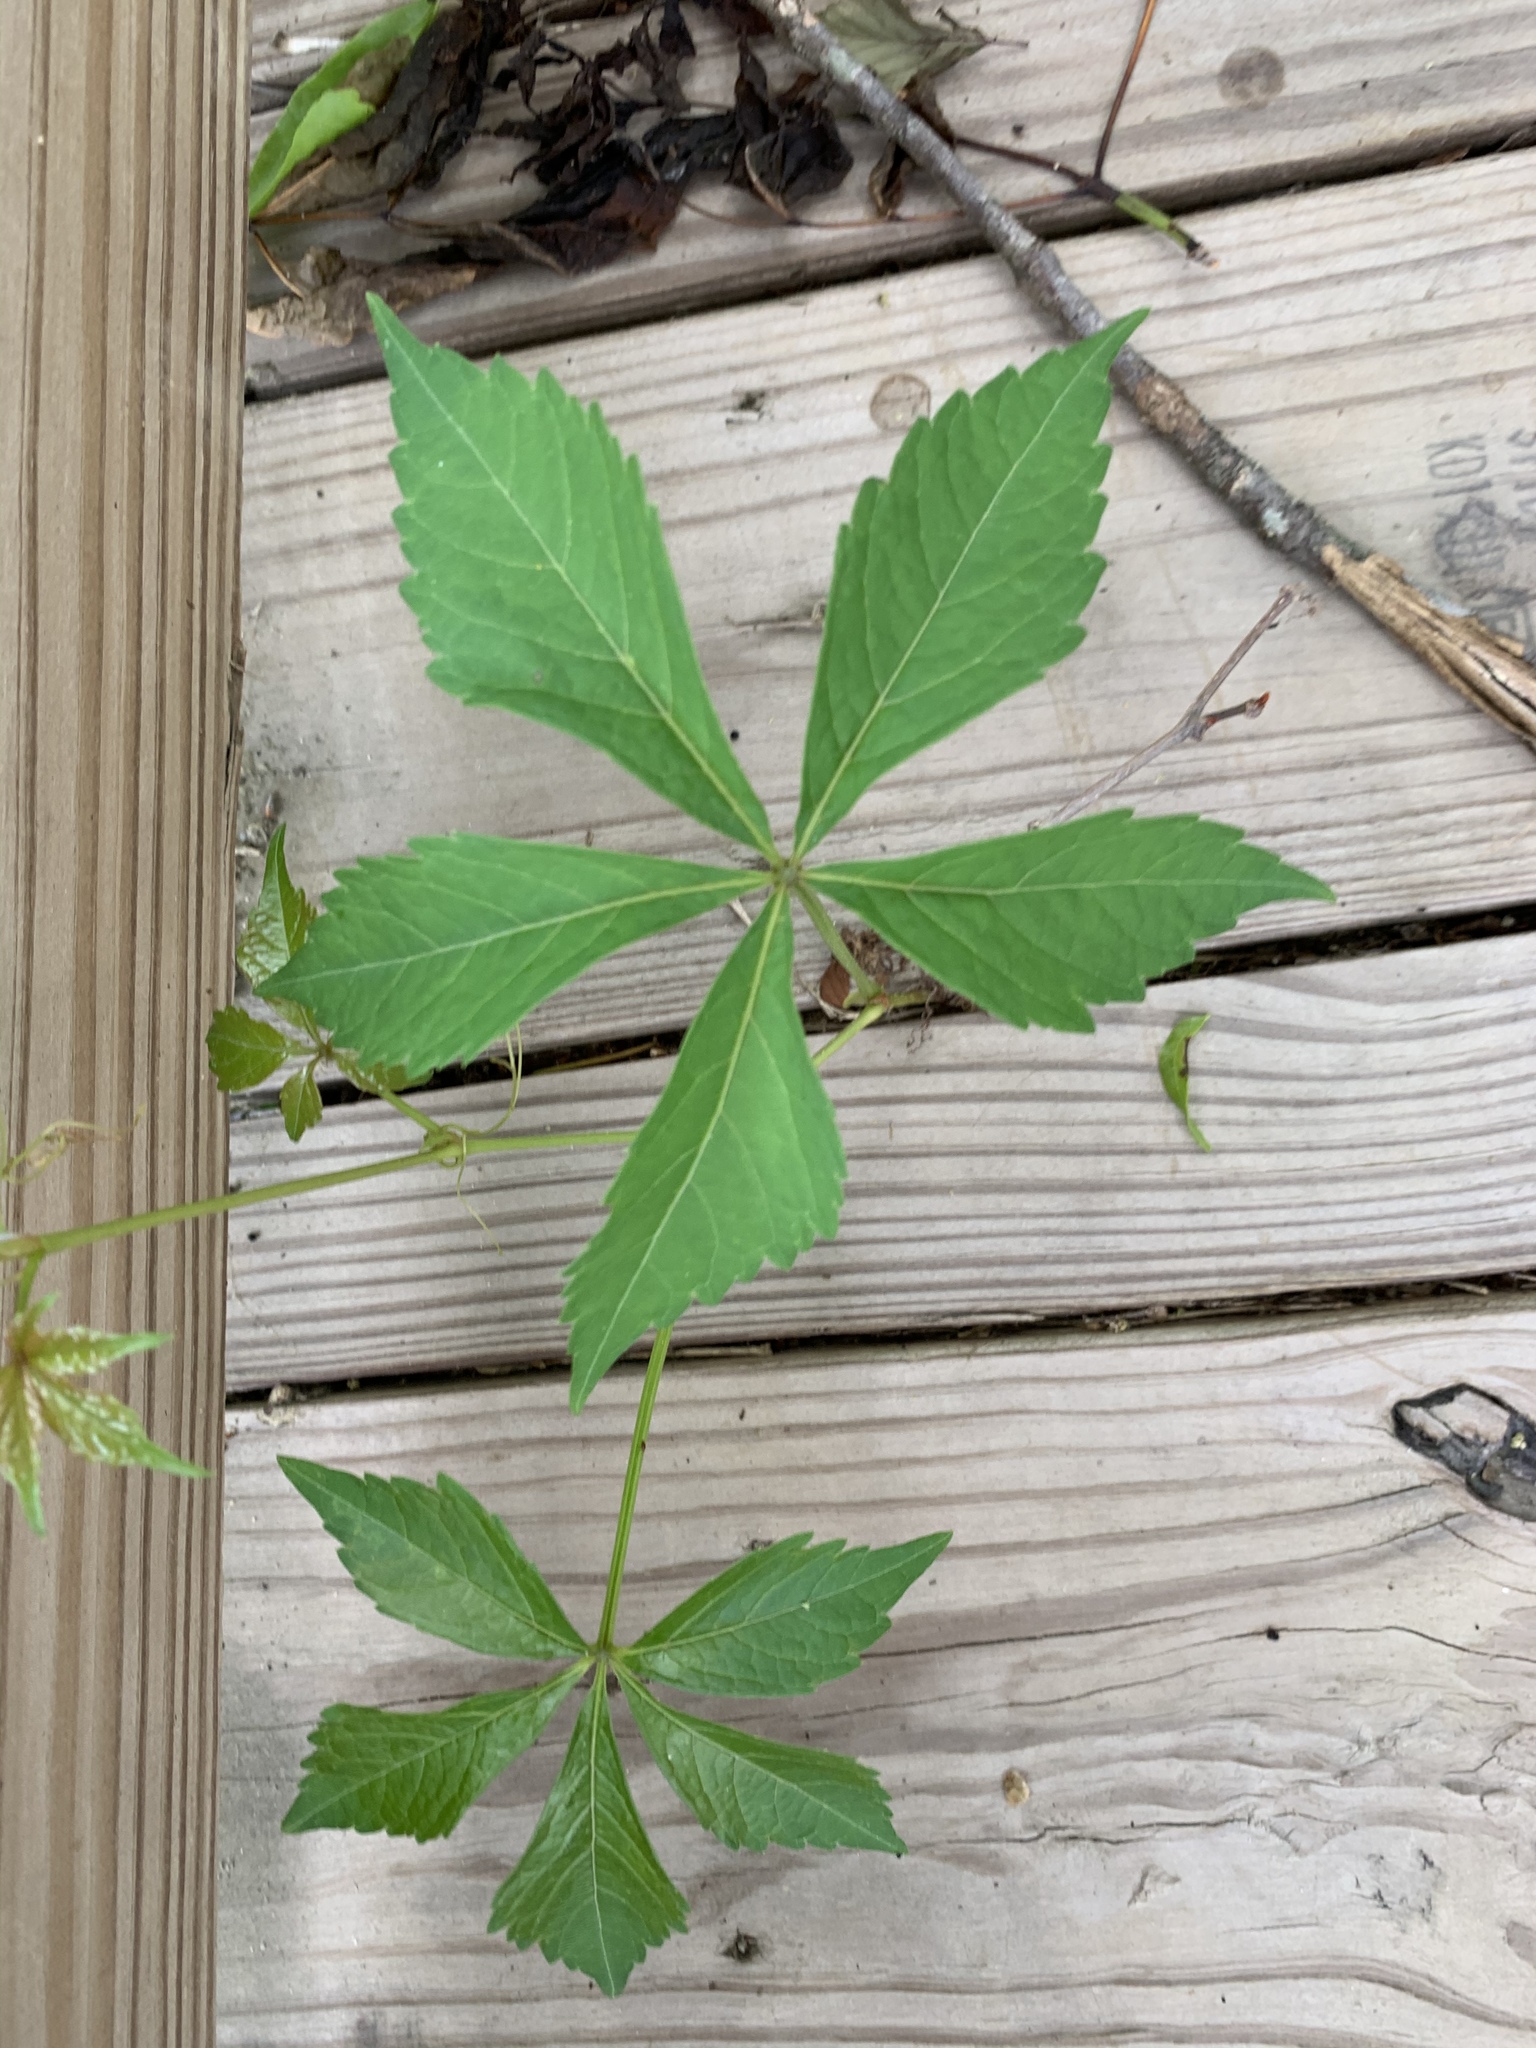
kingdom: Plantae
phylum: Tracheophyta
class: Magnoliopsida
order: Vitales
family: Vitaceae
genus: Parthenocissus
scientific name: Parthenocissus quinquefolia
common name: Virginia-creeper
